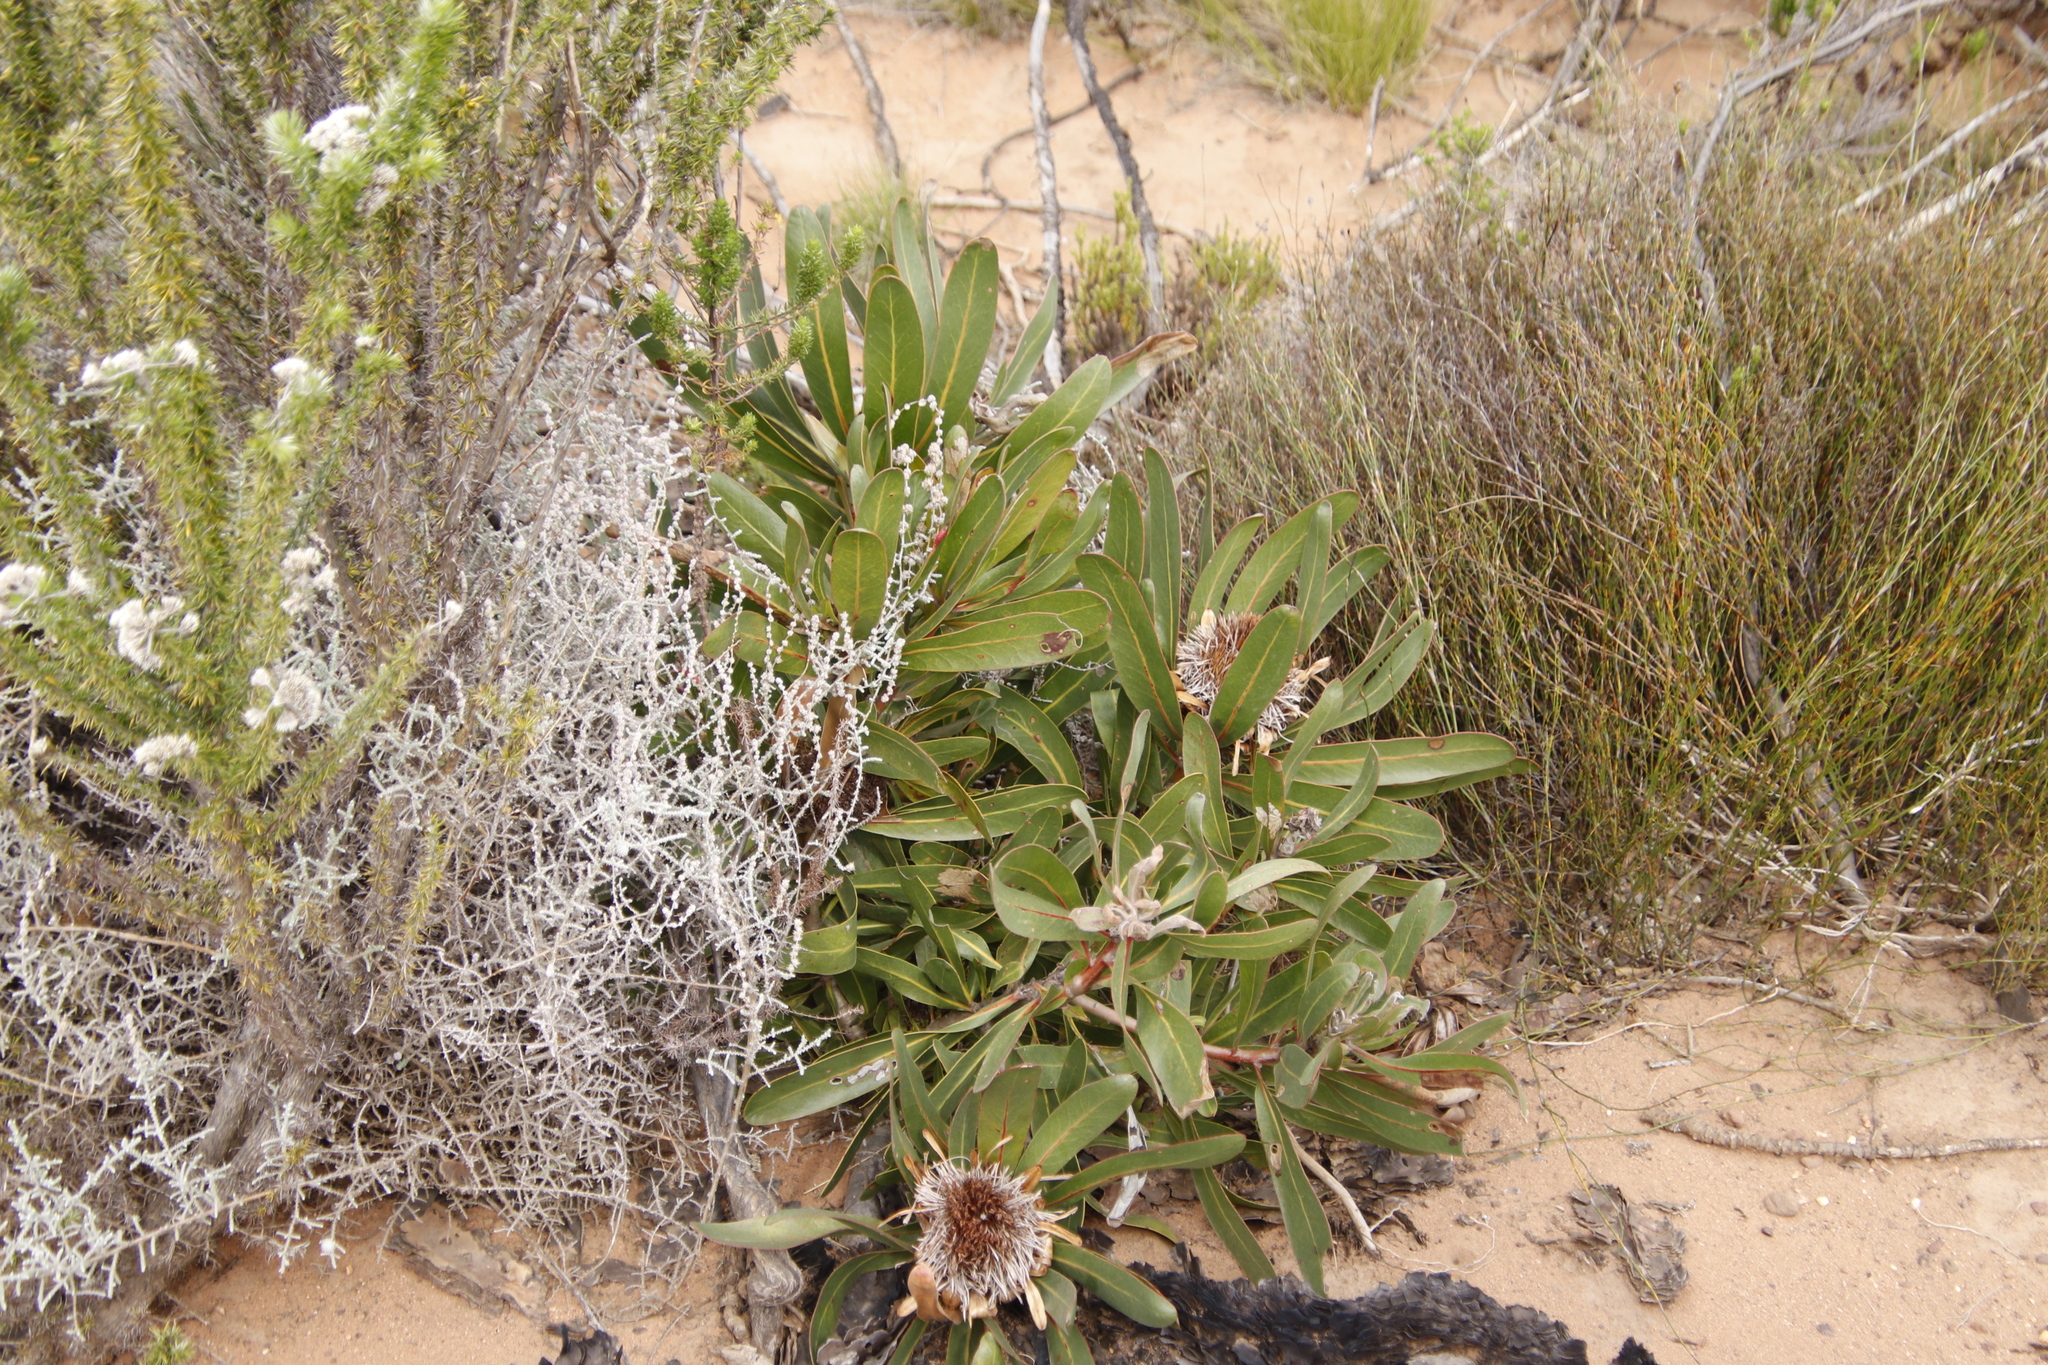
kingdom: Plantae
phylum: Tracheophyta
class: Magnoliopsida
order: Proteales
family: Proteaceae
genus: Protea
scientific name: Protea lorifolia
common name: Strap-leaved protea
